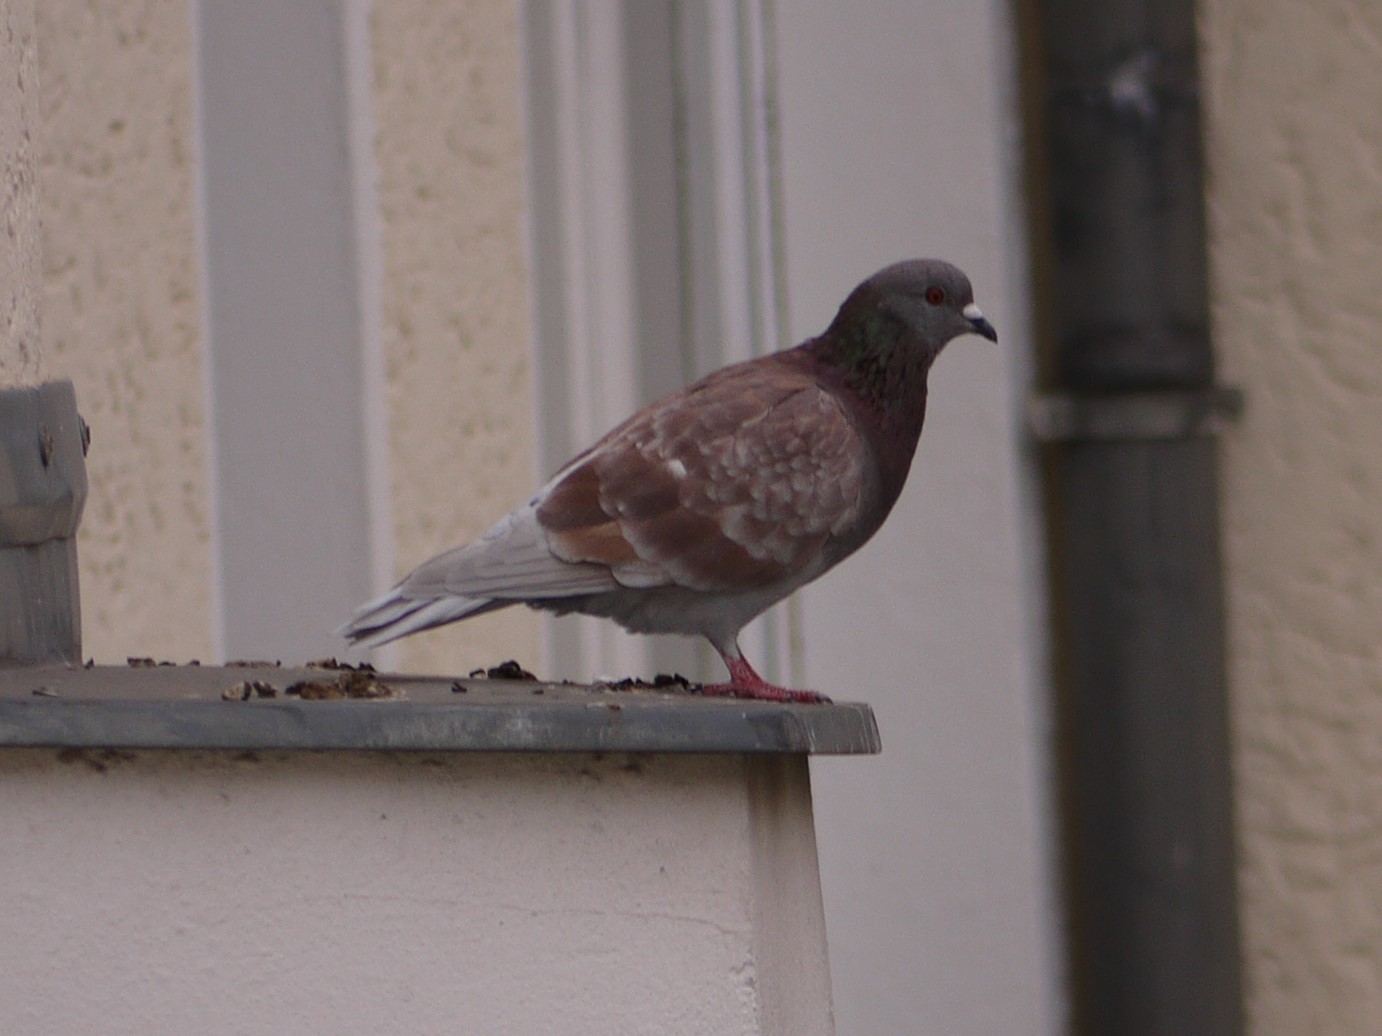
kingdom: Animalia
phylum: Chordata
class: Aves
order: Columbiformes
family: Columbidae
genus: Columba
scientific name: Columba livia
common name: Rock pigeon
